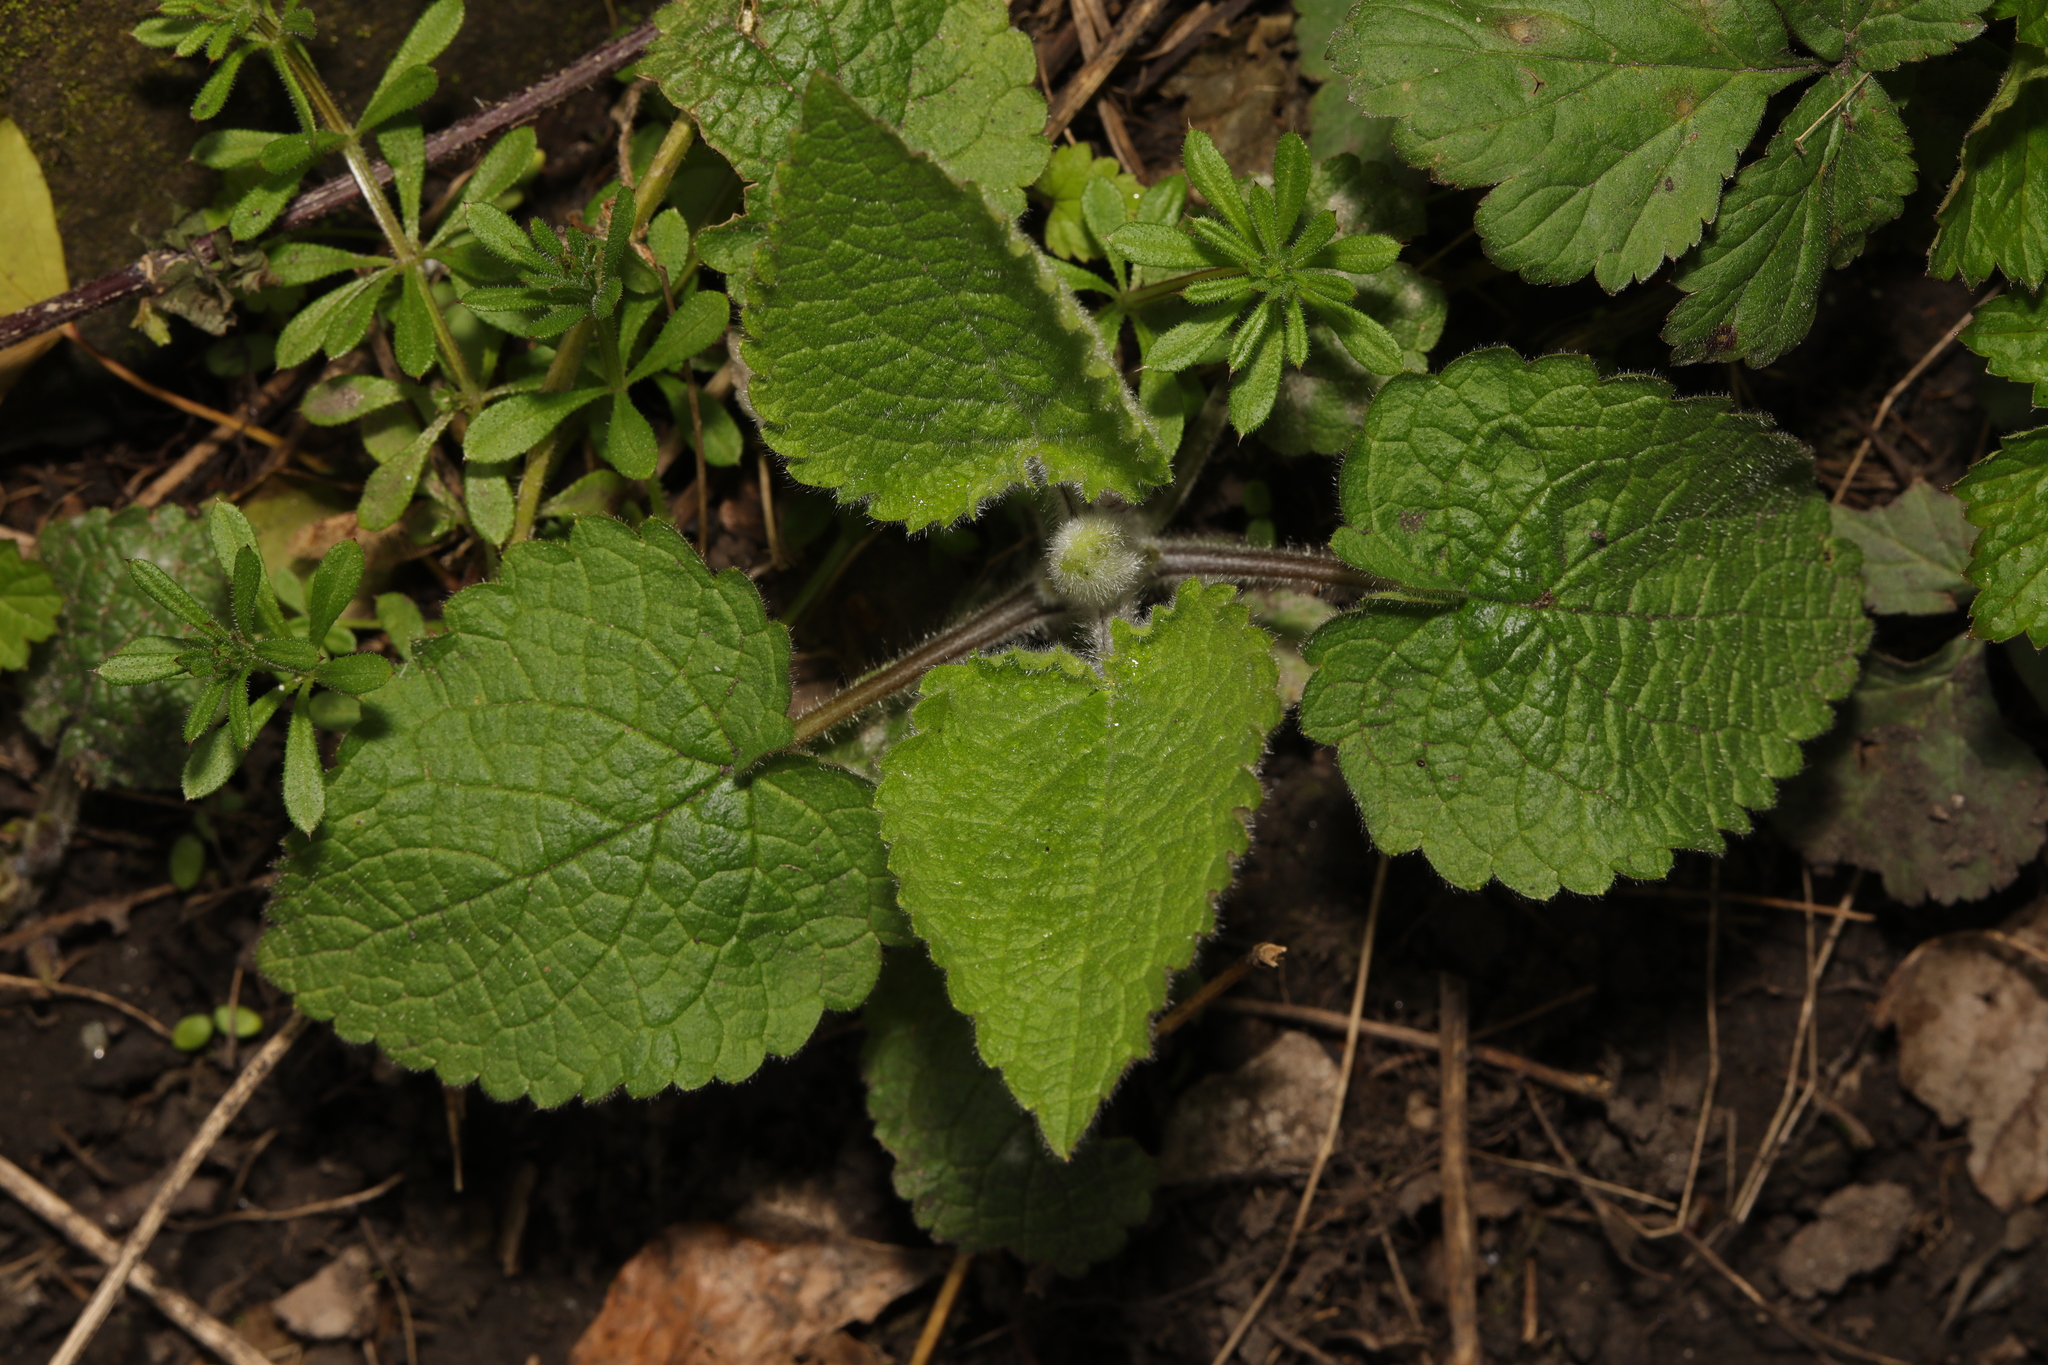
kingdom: Plantae
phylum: Tracheophyta
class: Magnoliopsida
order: Lamiales
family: Lamiaceae
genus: Stachys
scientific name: Stachys sylvatica
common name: Hedge woundwort
